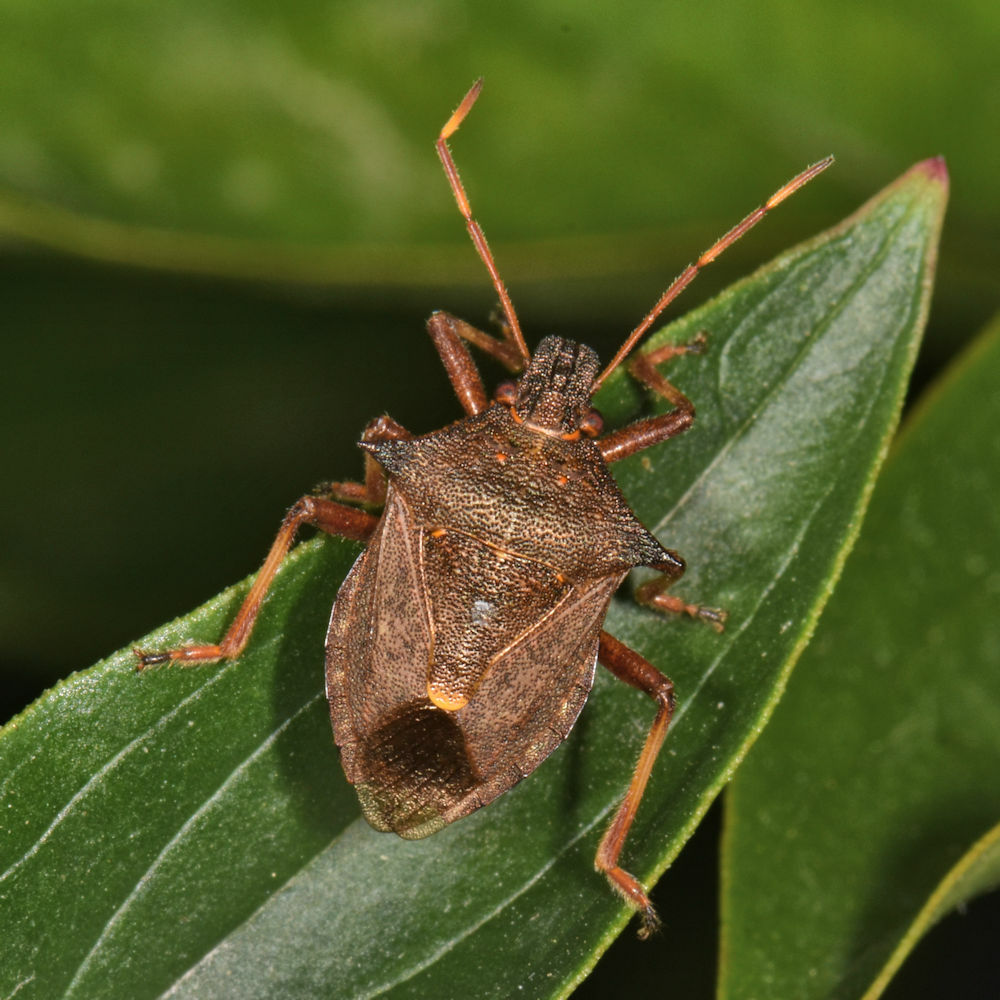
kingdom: Animalia
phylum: Arthropoda
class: Insecta
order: Hemiptera
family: Pentatomidae
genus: Picromerus
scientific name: Picromerus bidens
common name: Spiked shieldbug
